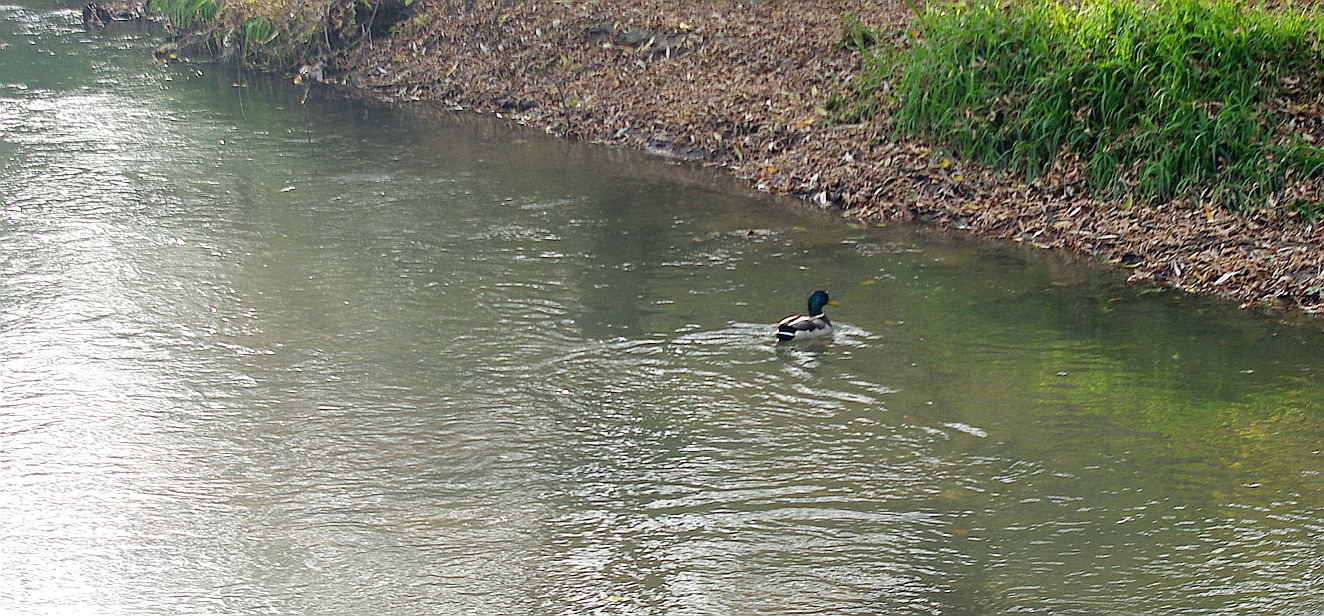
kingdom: Animalia
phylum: Chordata
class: Aves
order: Anseriformes
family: Anatidae
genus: Anas
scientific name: Anas platyrhynchos
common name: Mallard
